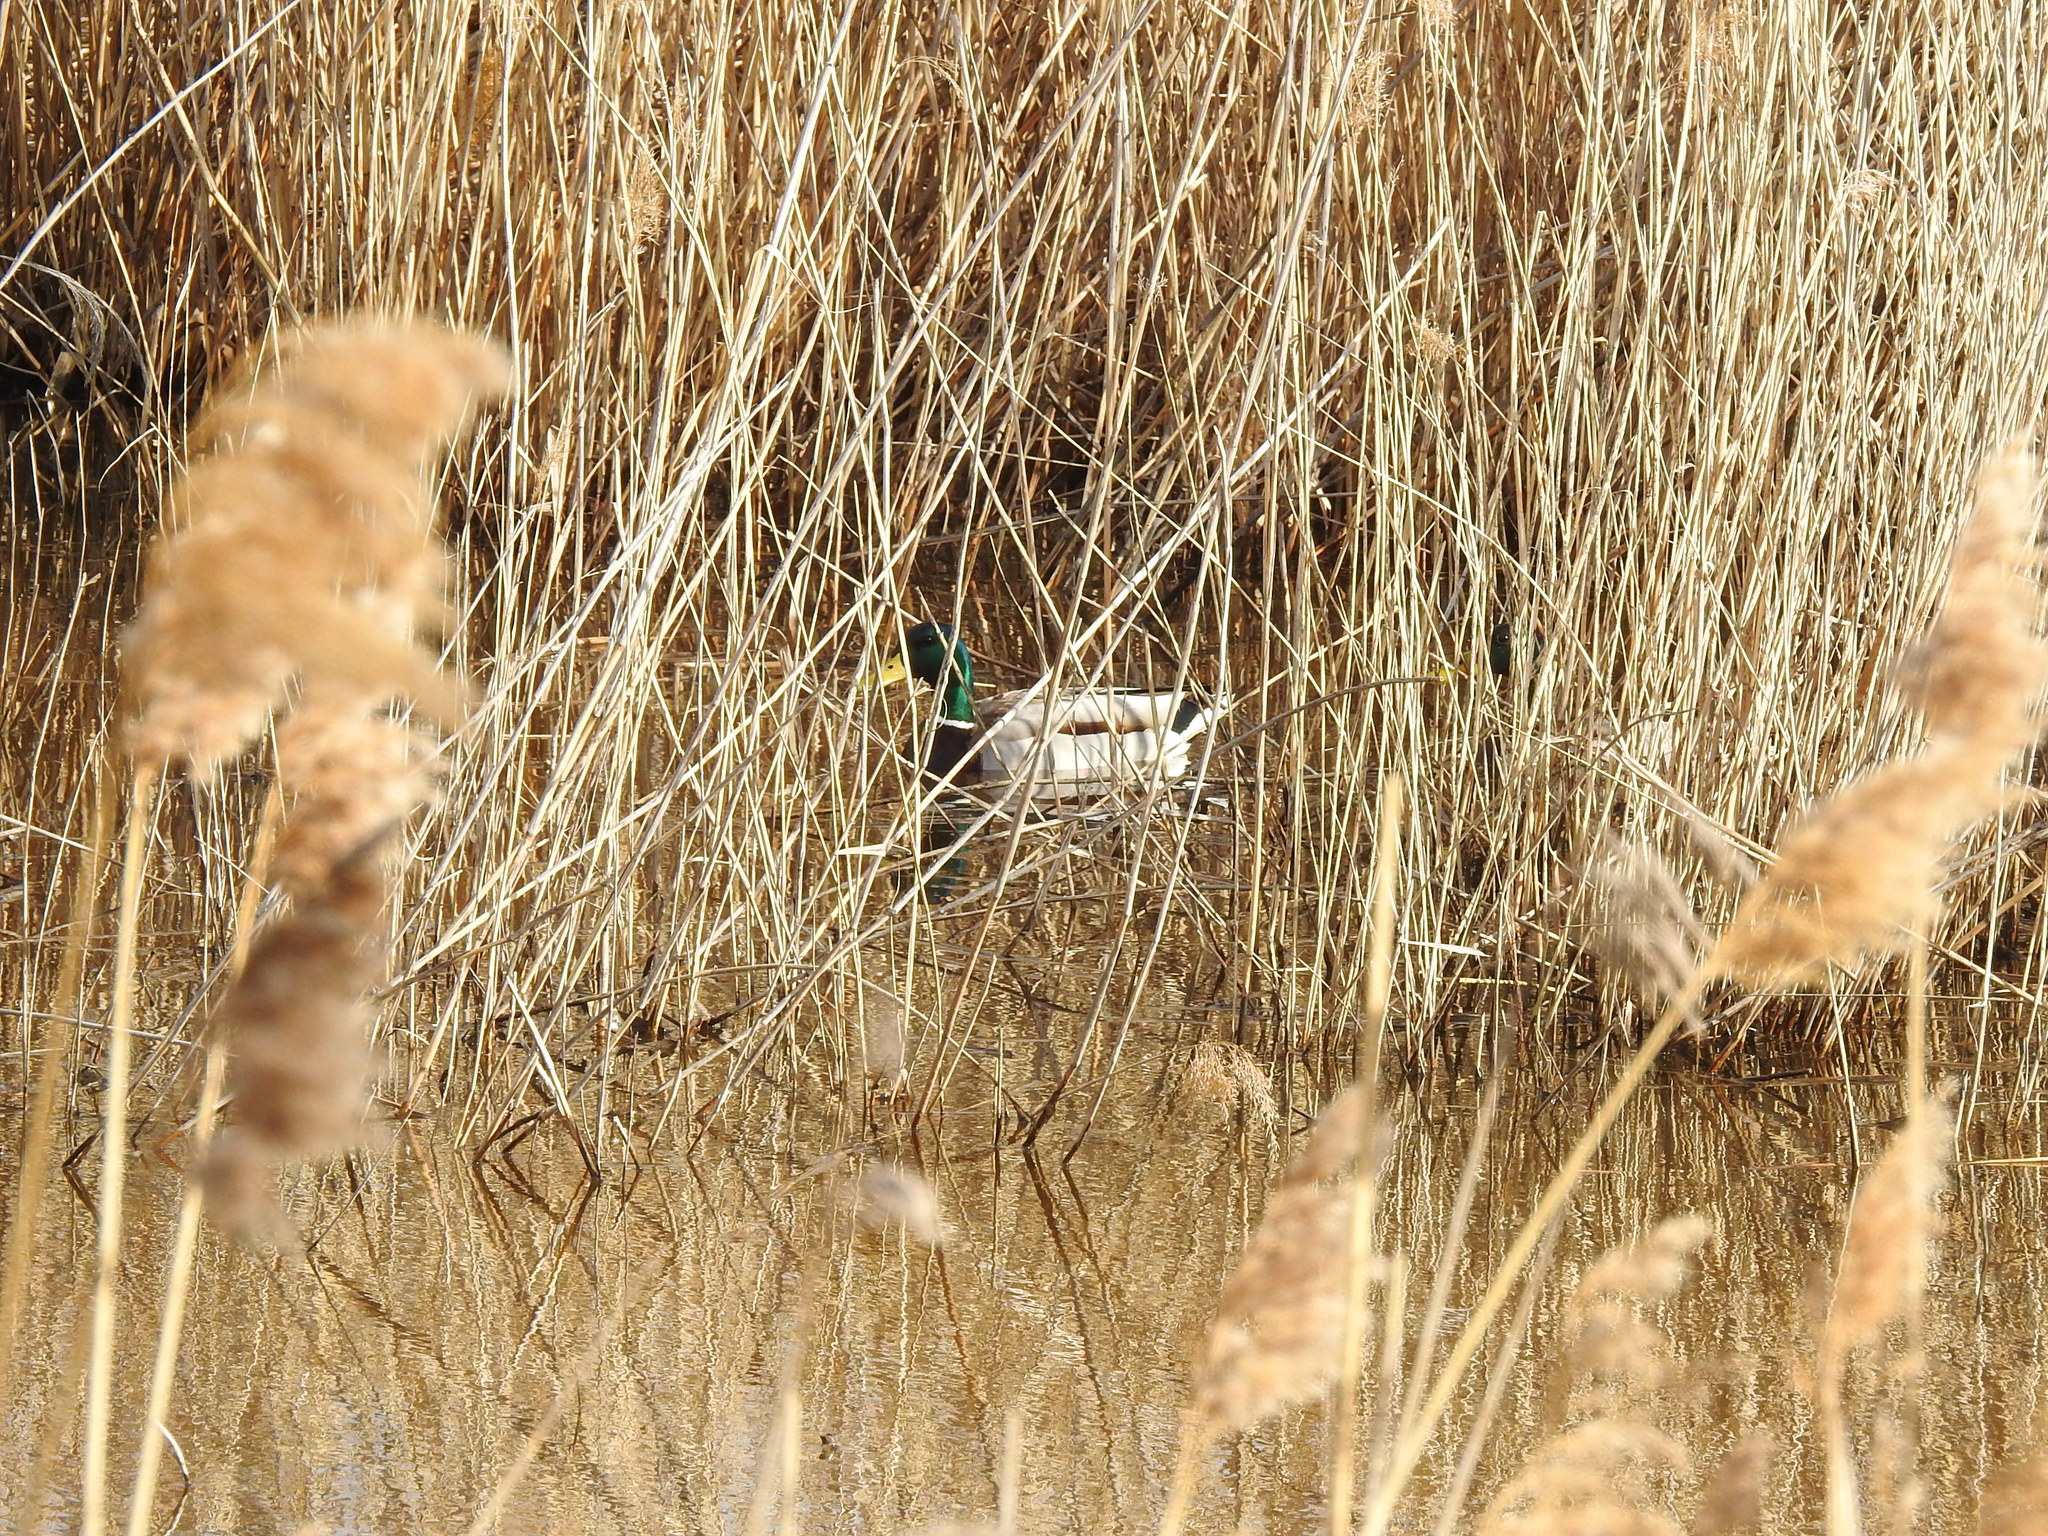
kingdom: Animalia
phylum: Chordata
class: Aves
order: Anseriformes
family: Anatidae
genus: Anas
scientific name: Anas platyrhynchos
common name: Mallard
